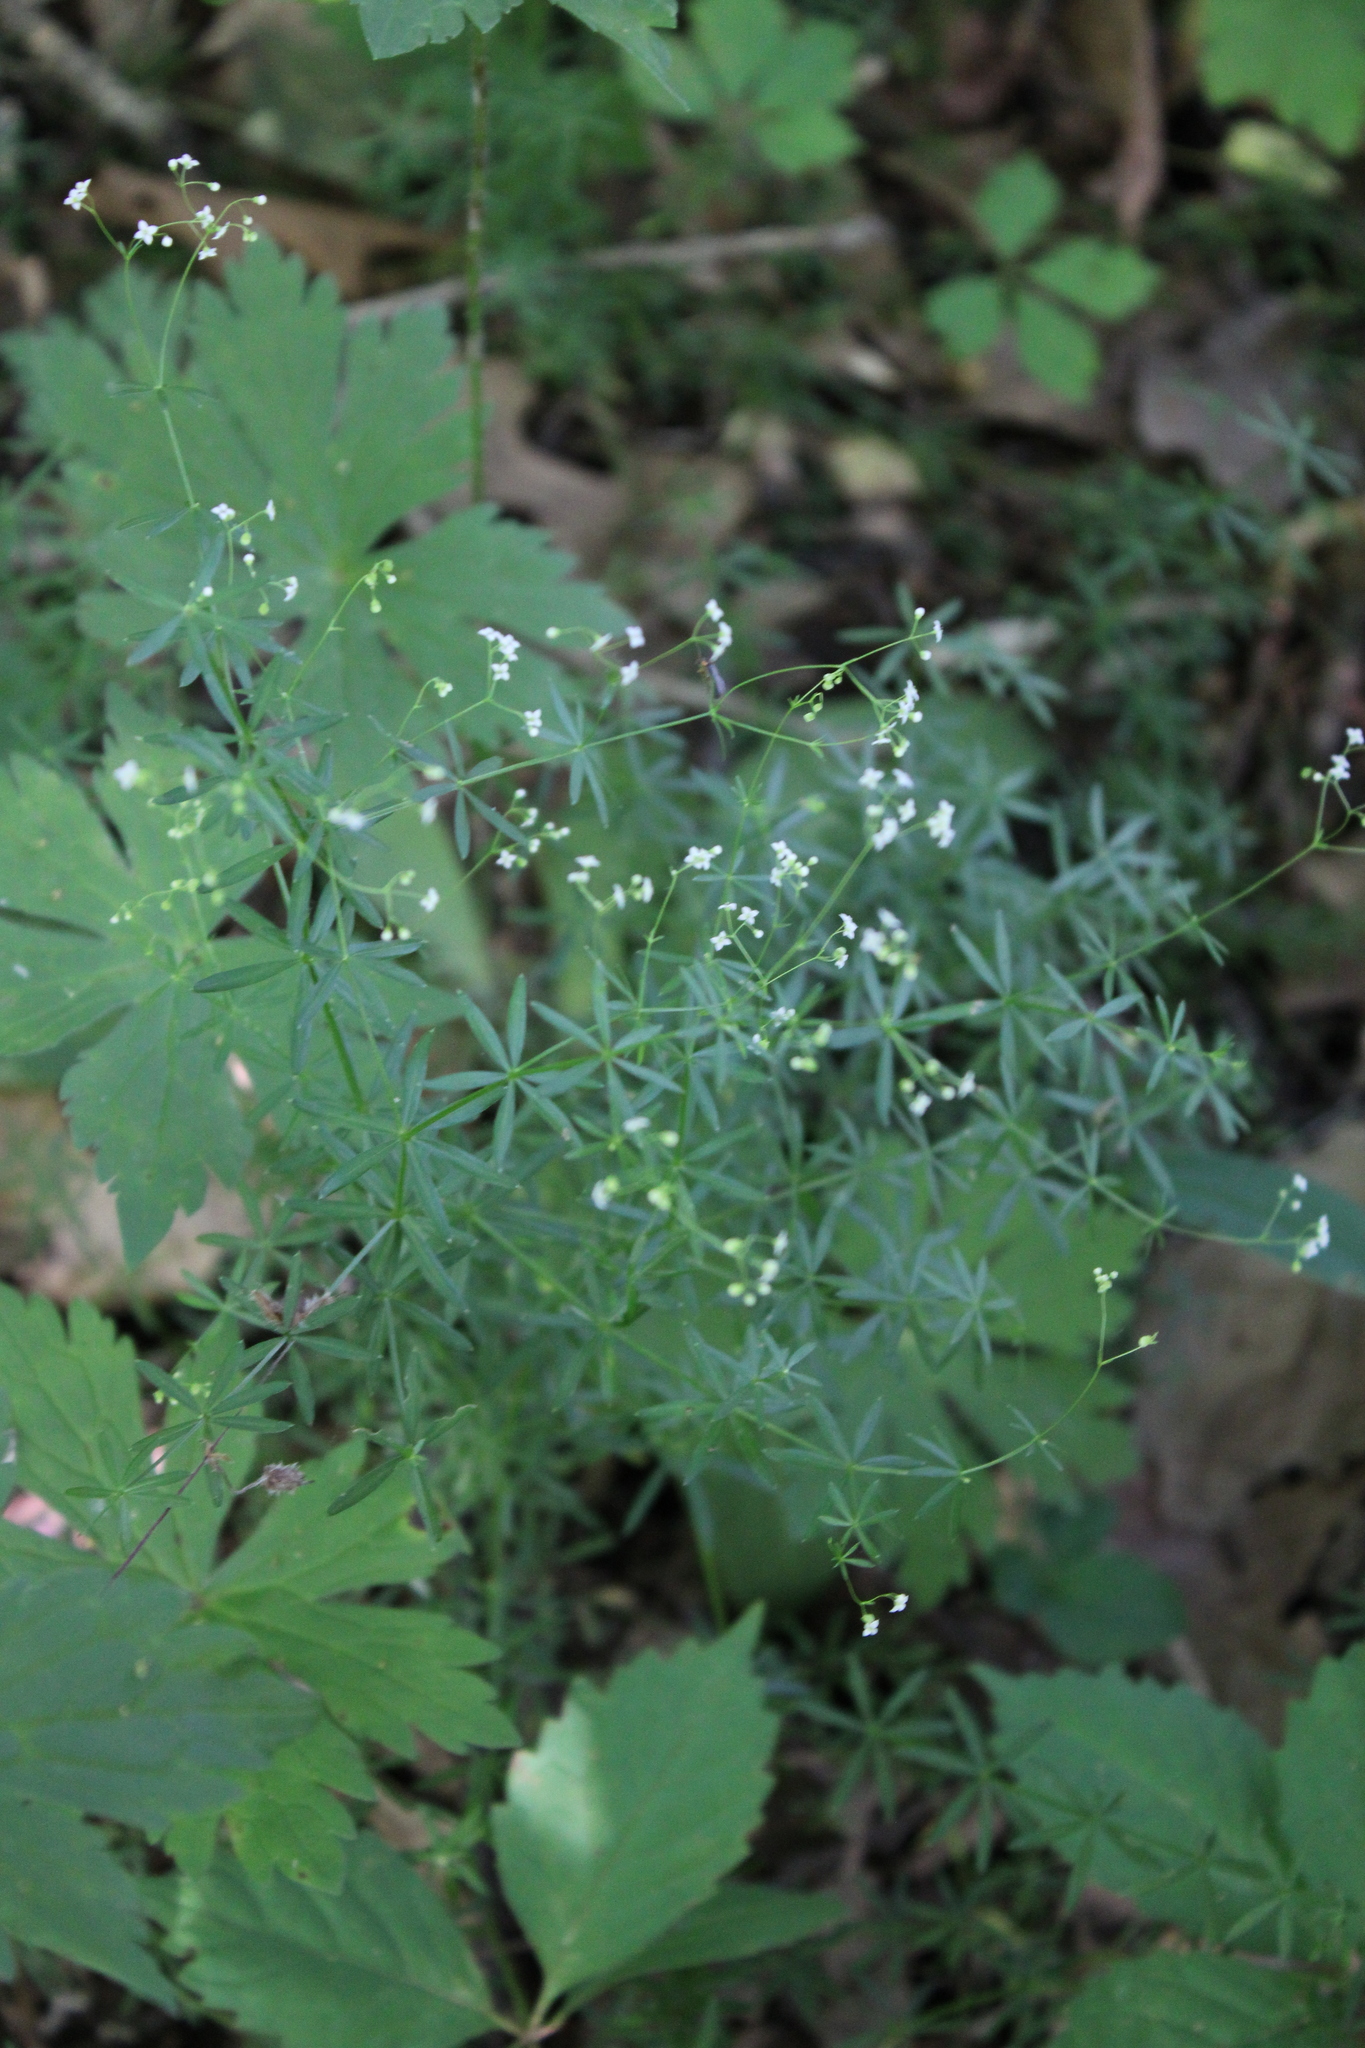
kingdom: Plantae
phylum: Tracheophyta
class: Magnoliopsida
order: Gentianales
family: Rubiaceae
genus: Galium
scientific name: Galium concinnum
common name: Shining bedstraw
